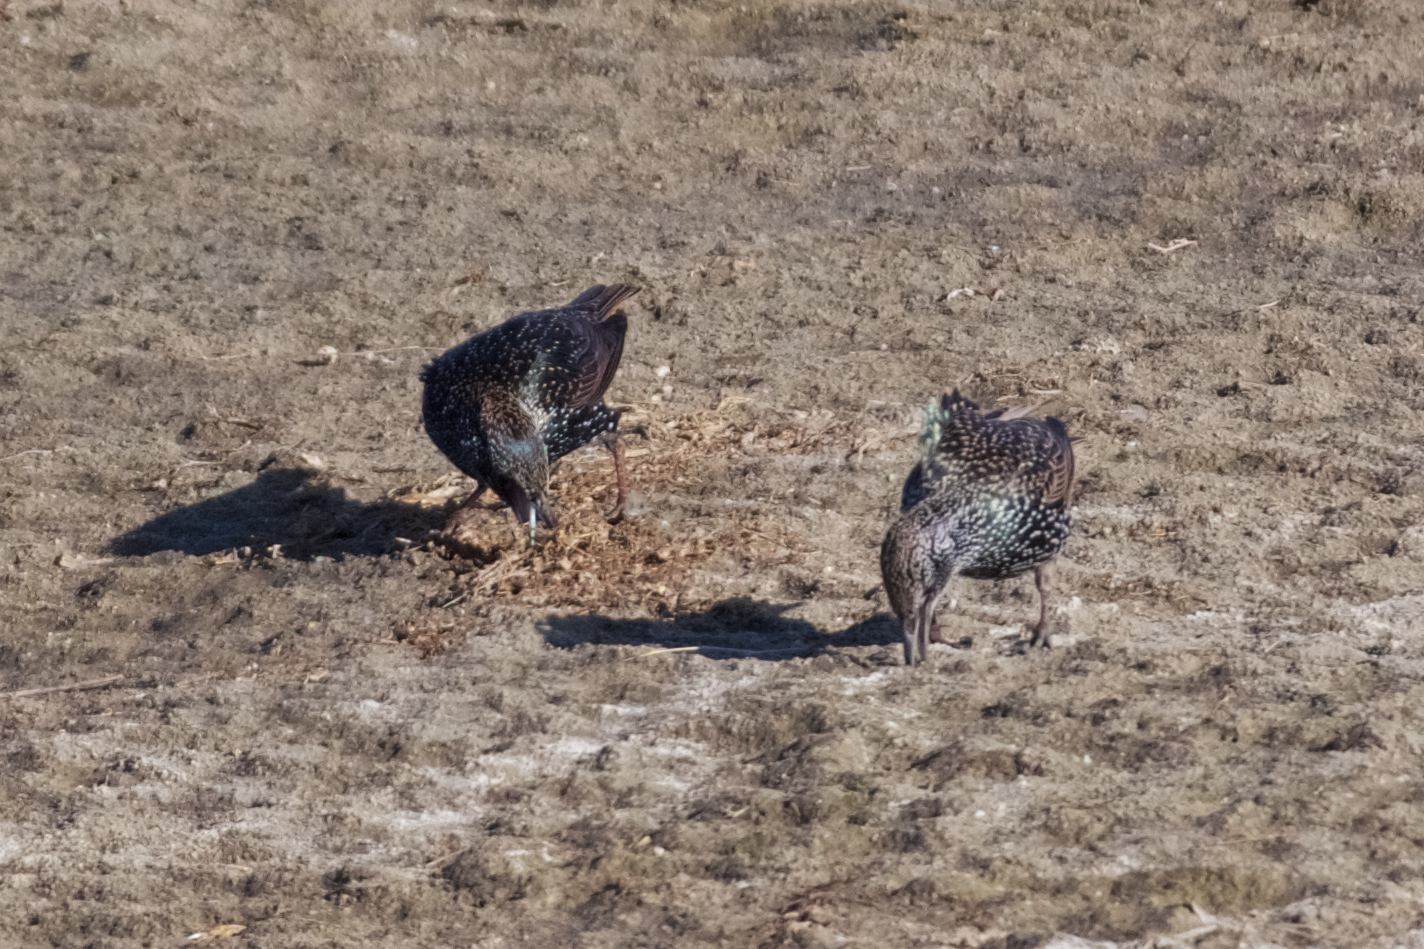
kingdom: Animalia
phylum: Chordata
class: Aves
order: Passeriformes
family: Sturnidae
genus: Sturnus
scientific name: Sturnus vulgaris
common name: Common starling
